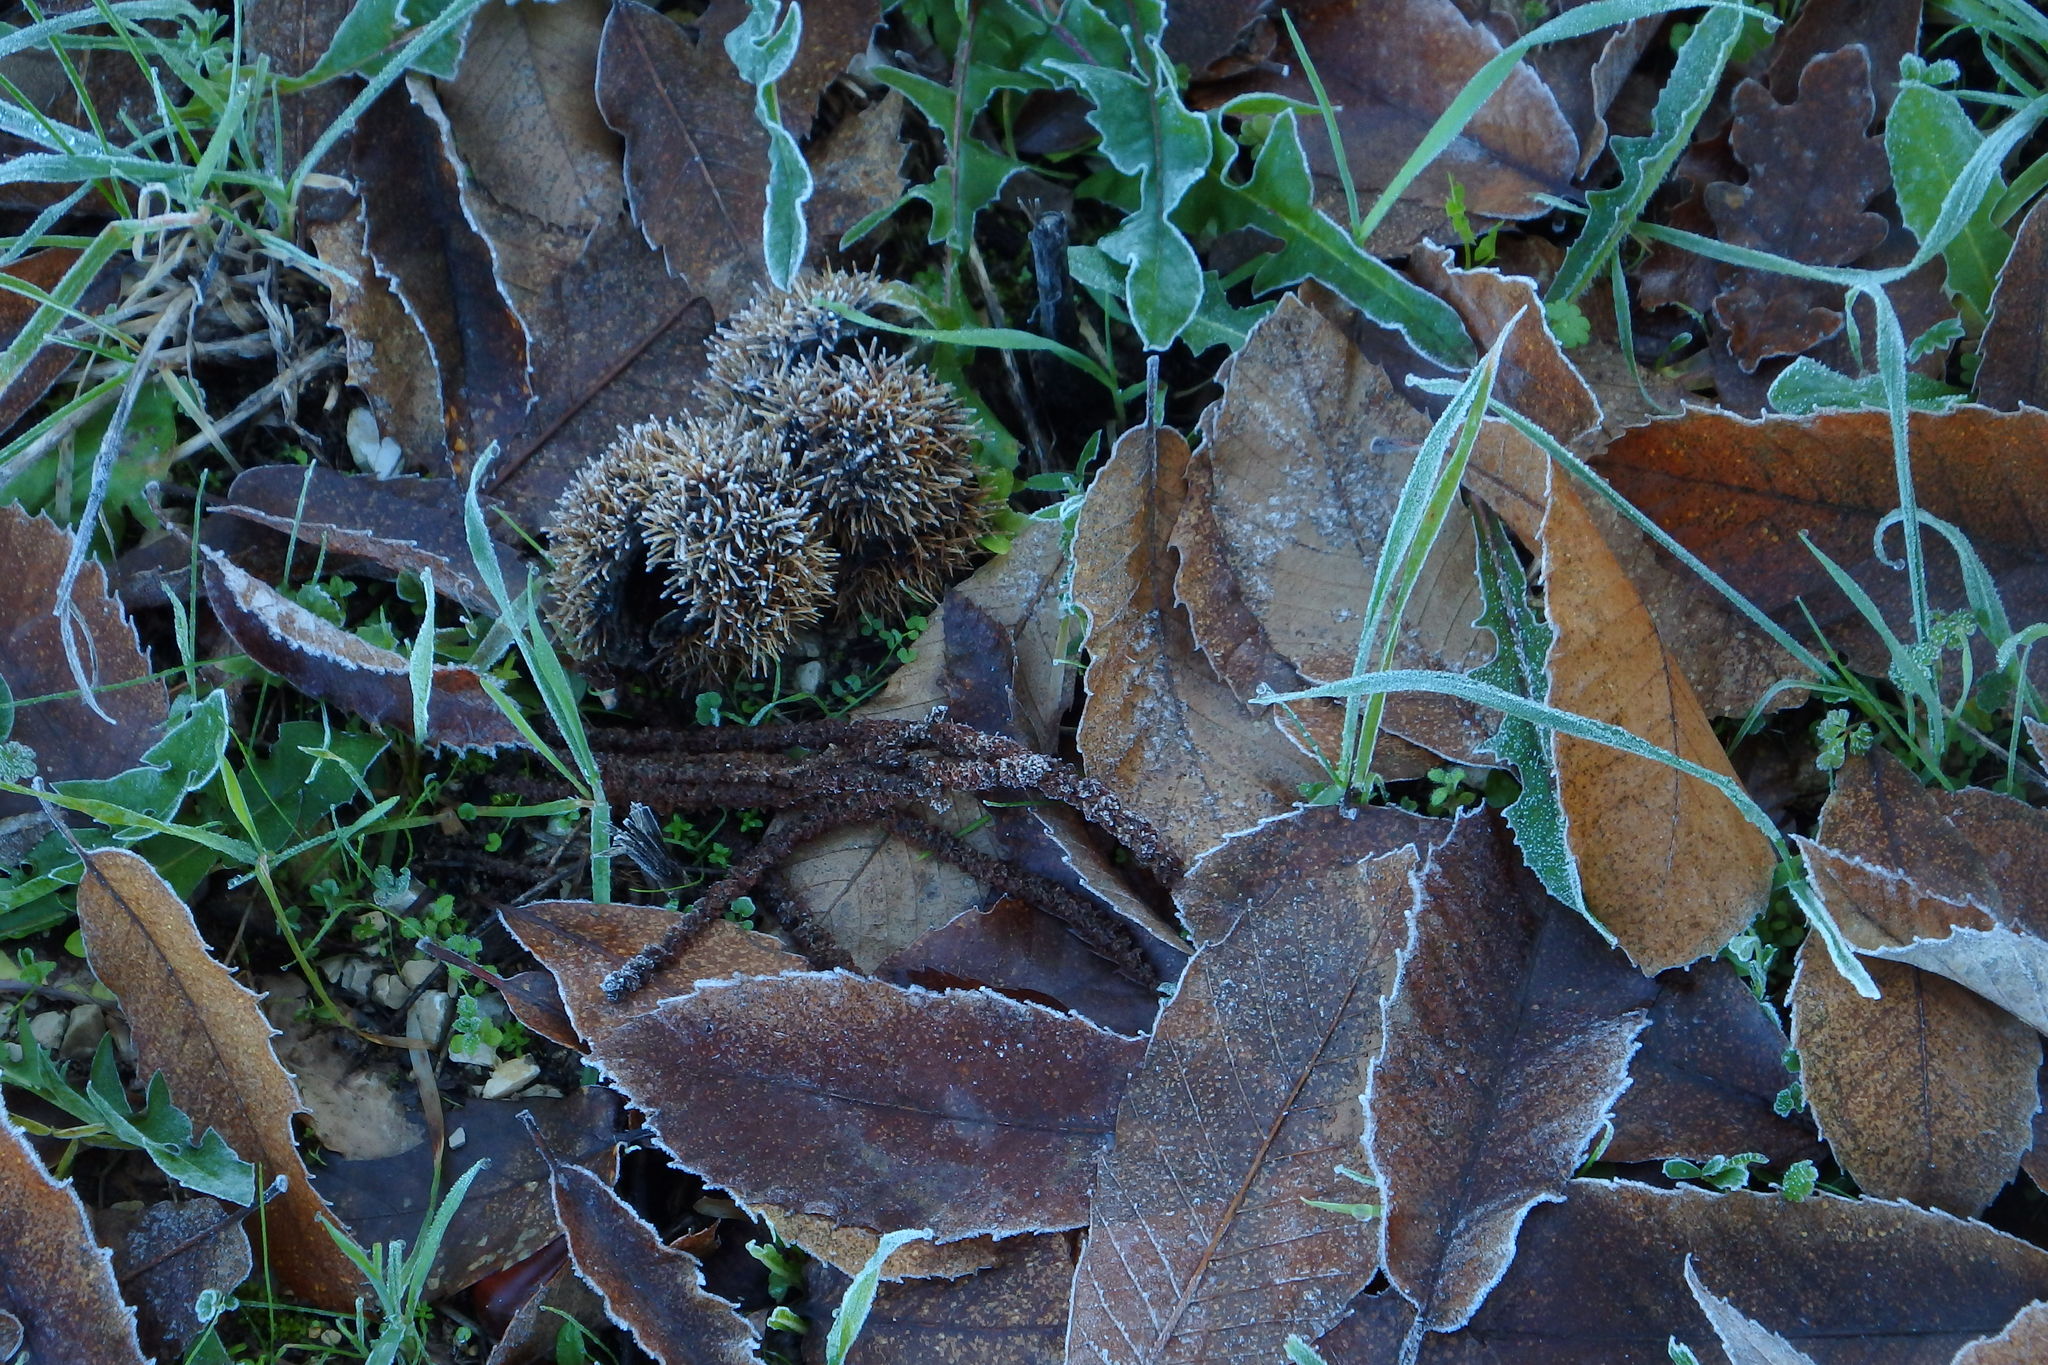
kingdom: Plantae
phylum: Tracheophyta
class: Magnoliopsida
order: Fagales
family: Fagaceae
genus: Castanea
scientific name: Castanea sativa
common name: Sweet chestnut
